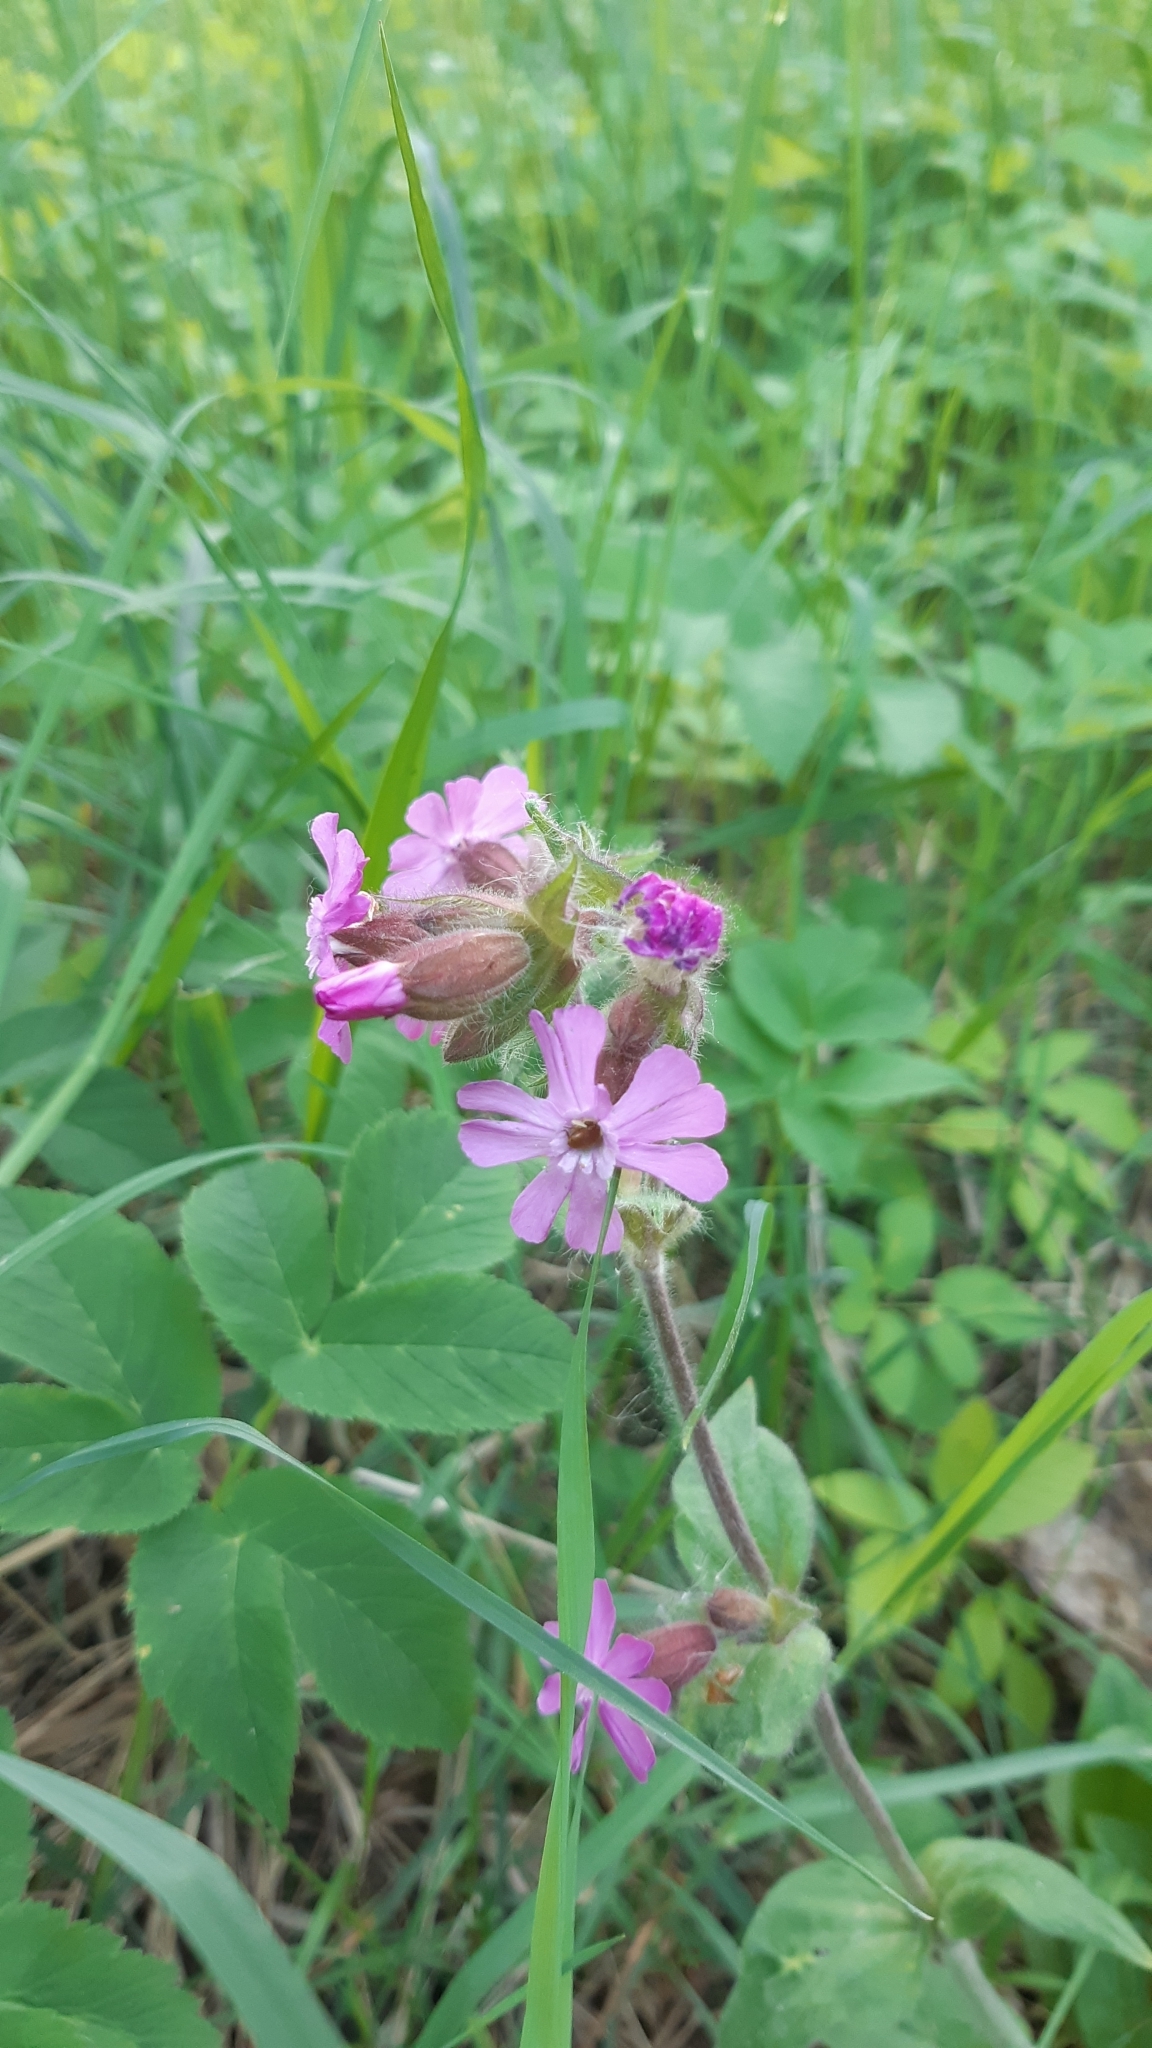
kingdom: Plantae
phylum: Tracheophyta
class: Magnoliopsida
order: Caryophyllales
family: Caryophyllaceae
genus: Silene
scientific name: Silene dioica
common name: Red campion
